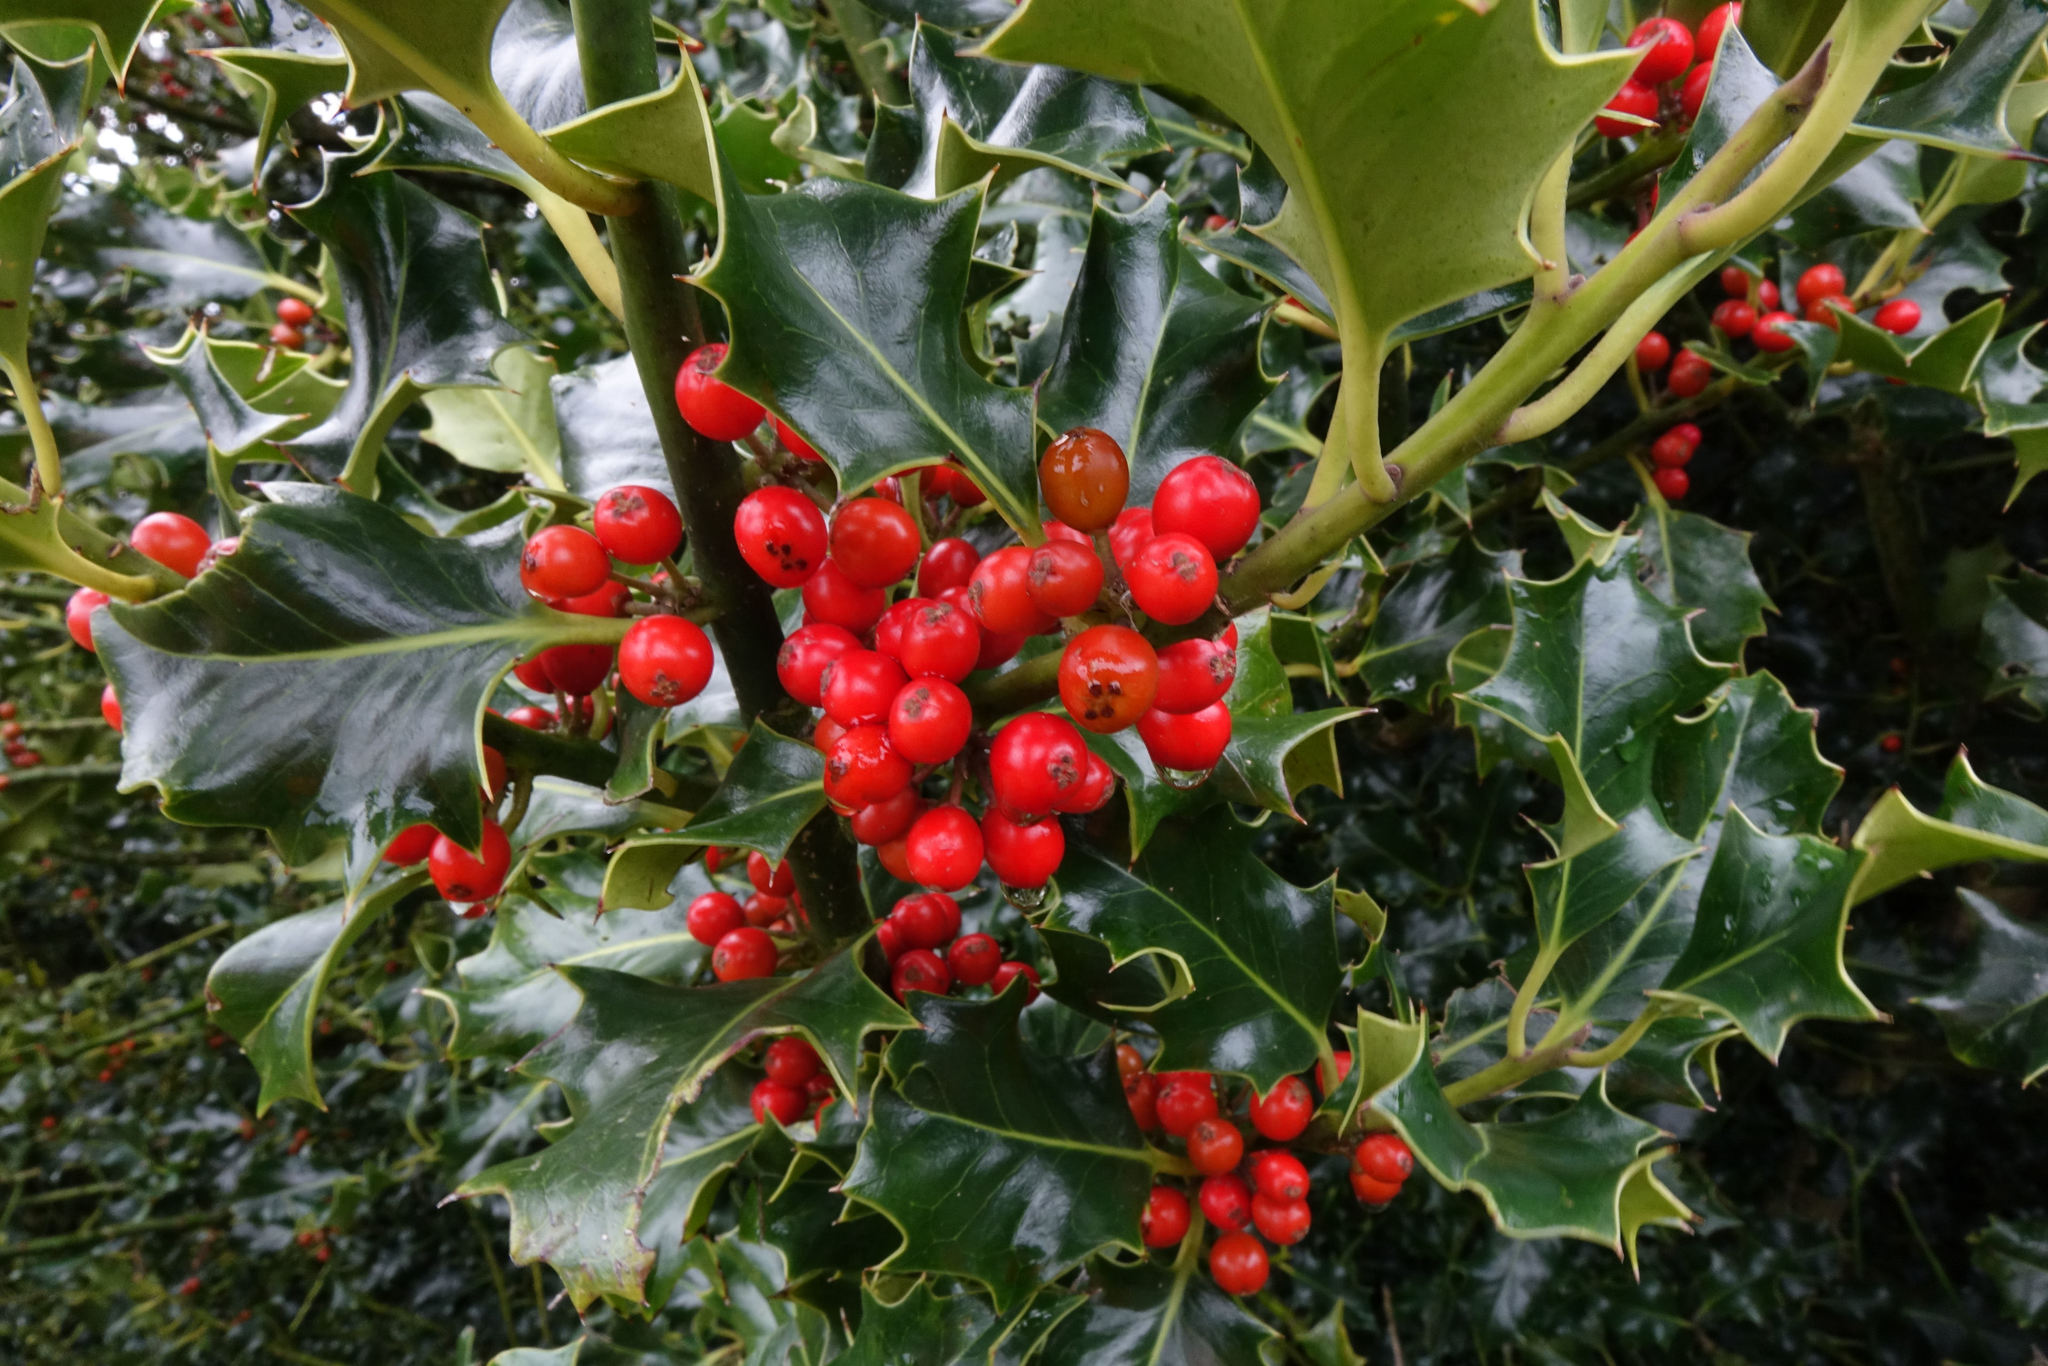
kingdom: Plantae
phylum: Tracheophyta
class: Magnoliopsida
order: Aquifoliales
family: Aquifoliaceae
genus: Ilex
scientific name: Ilex aquifolium
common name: English holly
